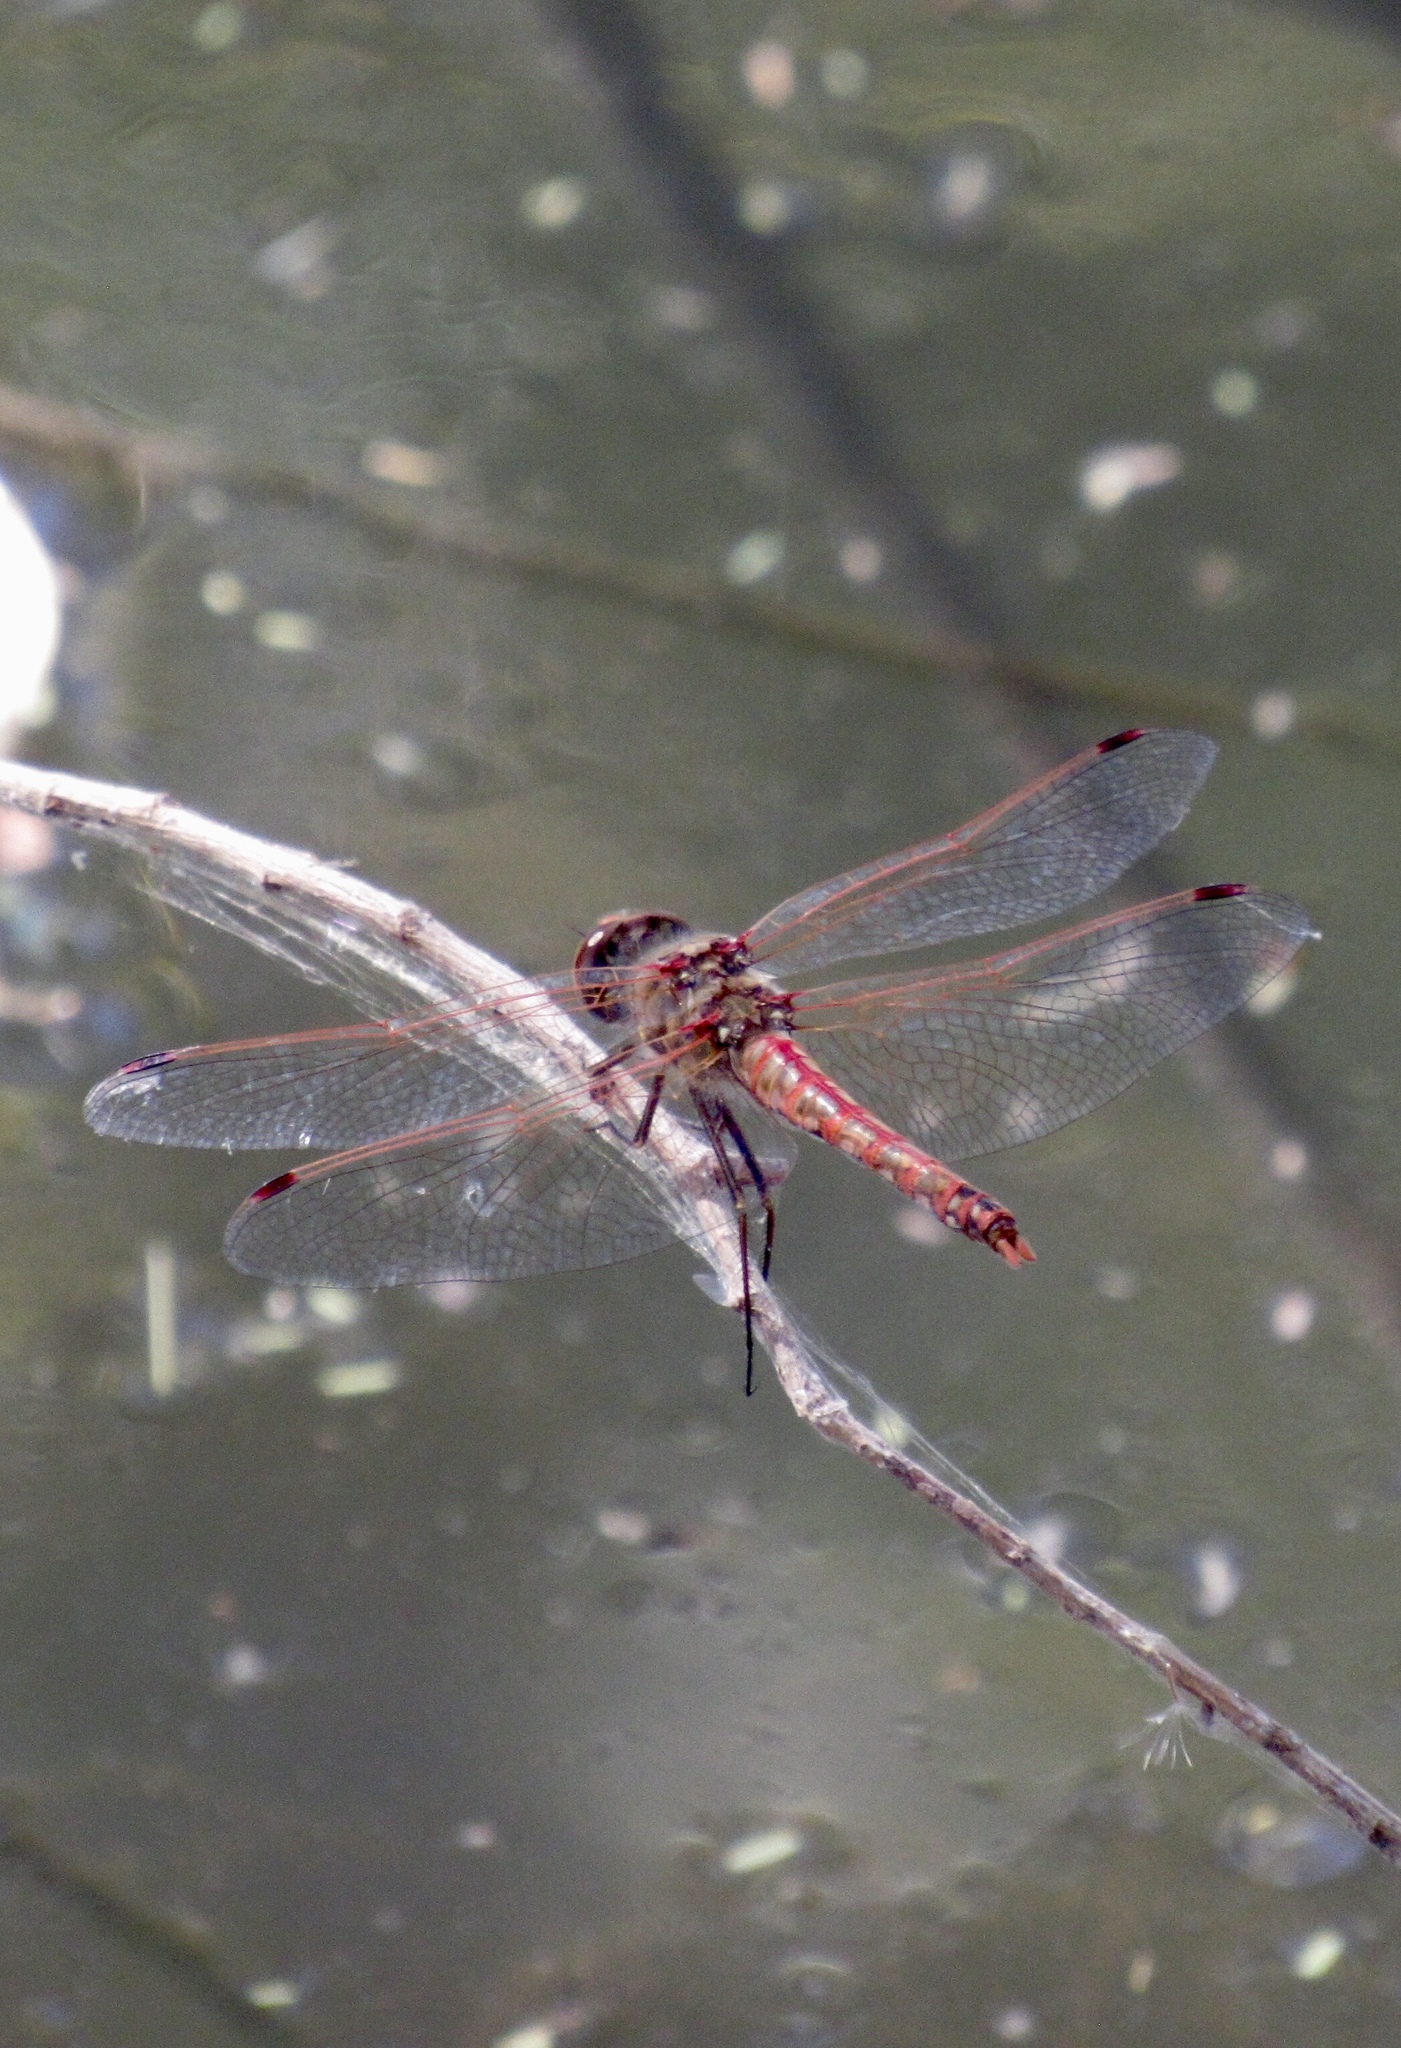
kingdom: Animalia
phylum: Arthropoda
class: Insecta
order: Odonata
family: Libellulidae
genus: Sympetrum
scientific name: Sympetrum corruptum
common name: Variegated meadowhawk
